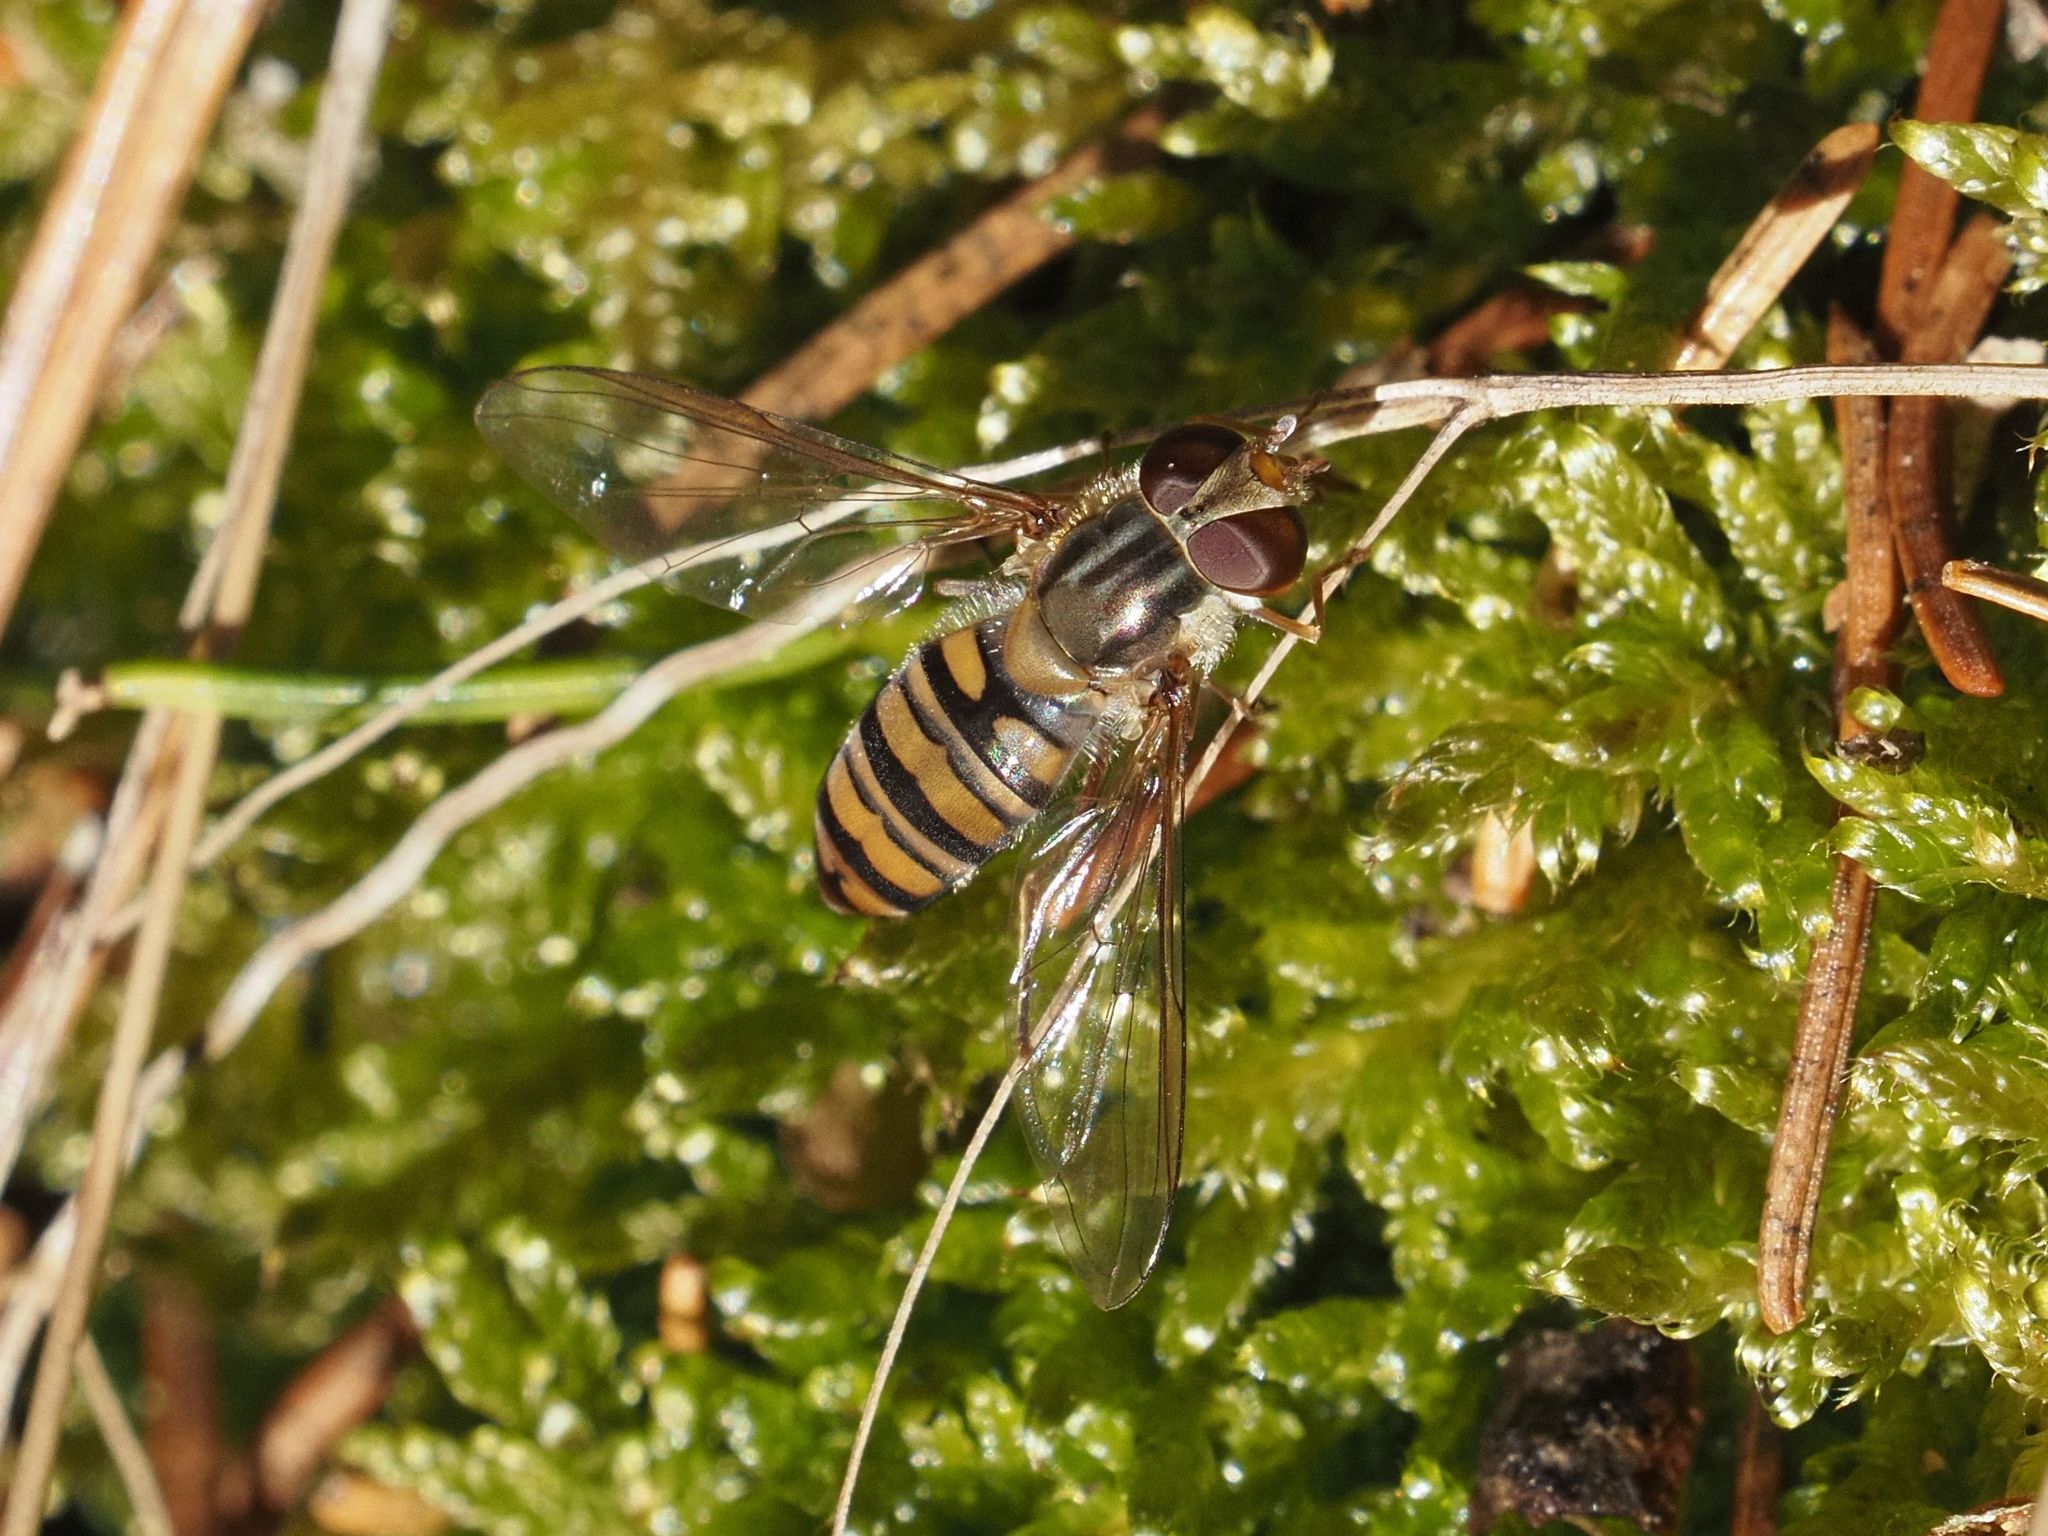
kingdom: Animalia
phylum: Arthropoda
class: Insecta
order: Diptera
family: Syrphidae
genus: Episyrphus
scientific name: Episyrphus balteatus
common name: Marmalade hoverfly
